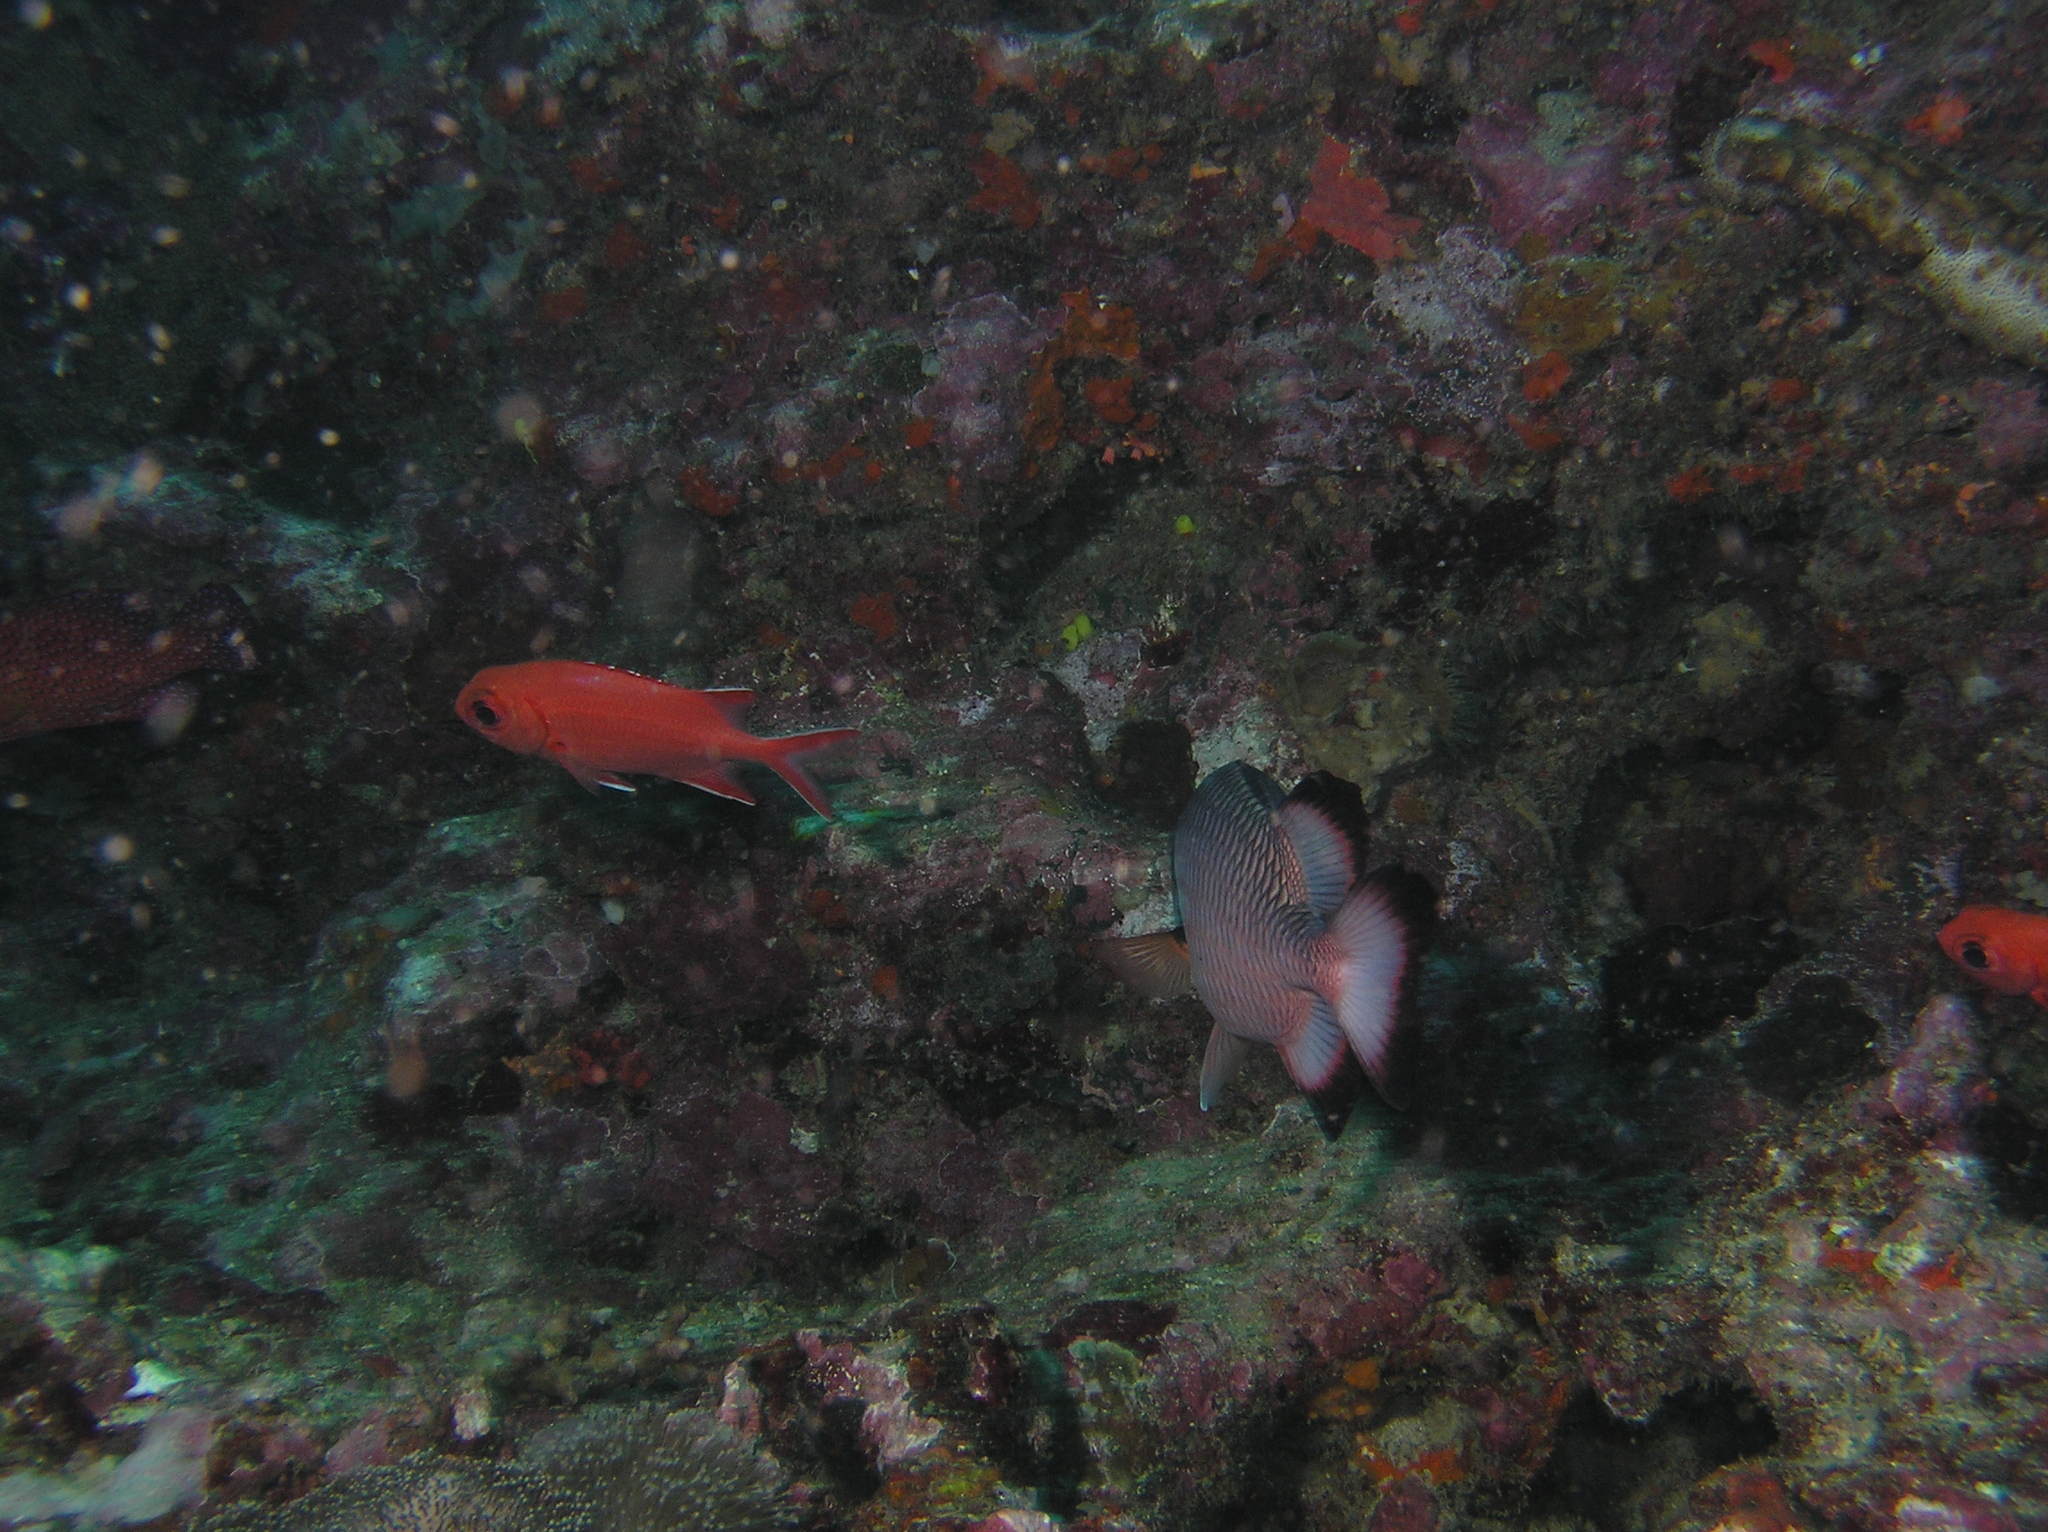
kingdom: Animalia
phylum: Chordata
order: Beryciformes
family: Holocentridae
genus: Myripristis
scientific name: Myripristis adusta
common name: Blackfin soldierfish
